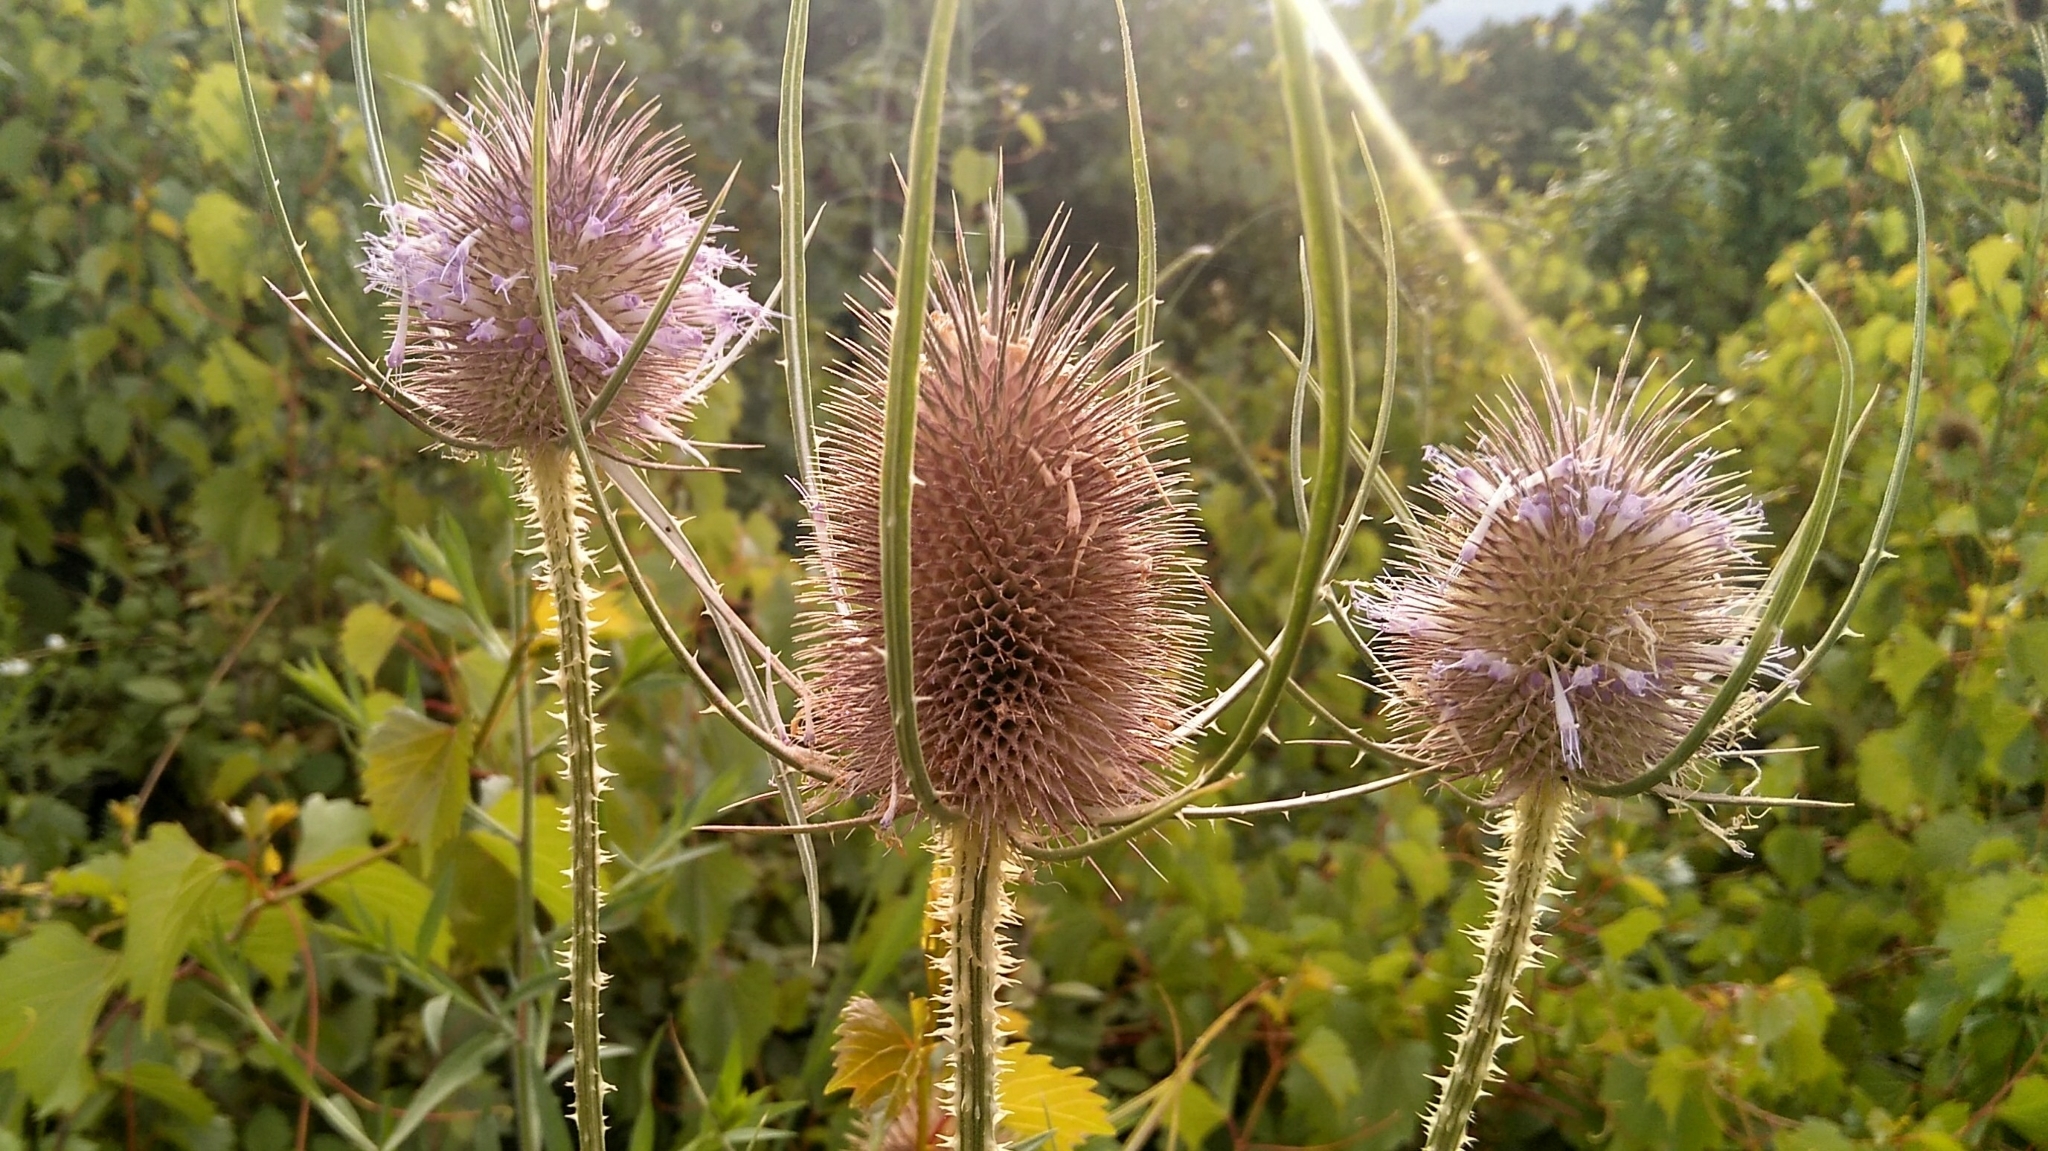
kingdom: Plantae
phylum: Tracheophyta
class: Magnoliopsida
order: Dipsacales
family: Caprifoliaceae
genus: Dipsacus
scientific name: Dipsacus fullonum
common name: Teasel
